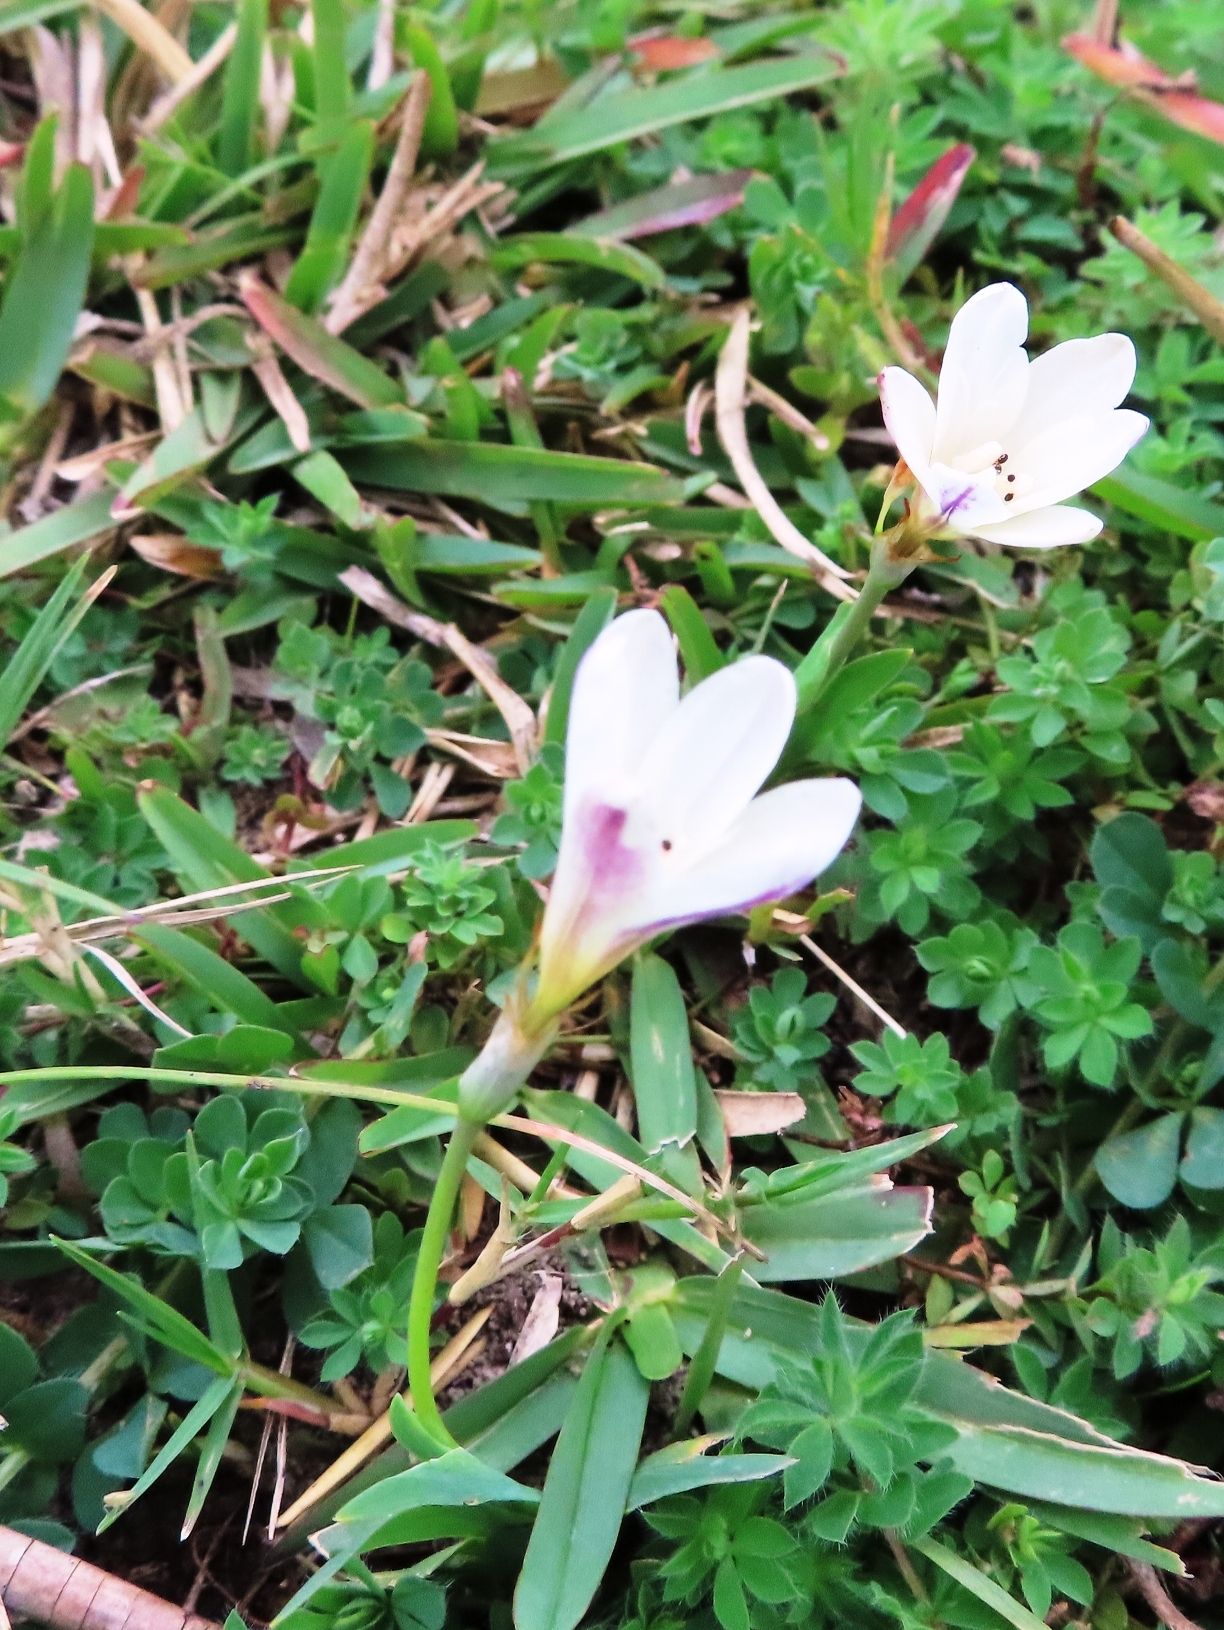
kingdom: Plantae
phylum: Tracheophyta
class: Liliopsida
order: Asparagales
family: Iridaceae
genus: Sparaxis
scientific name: Sparaxis bulbifera
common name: Harlequin-flower
